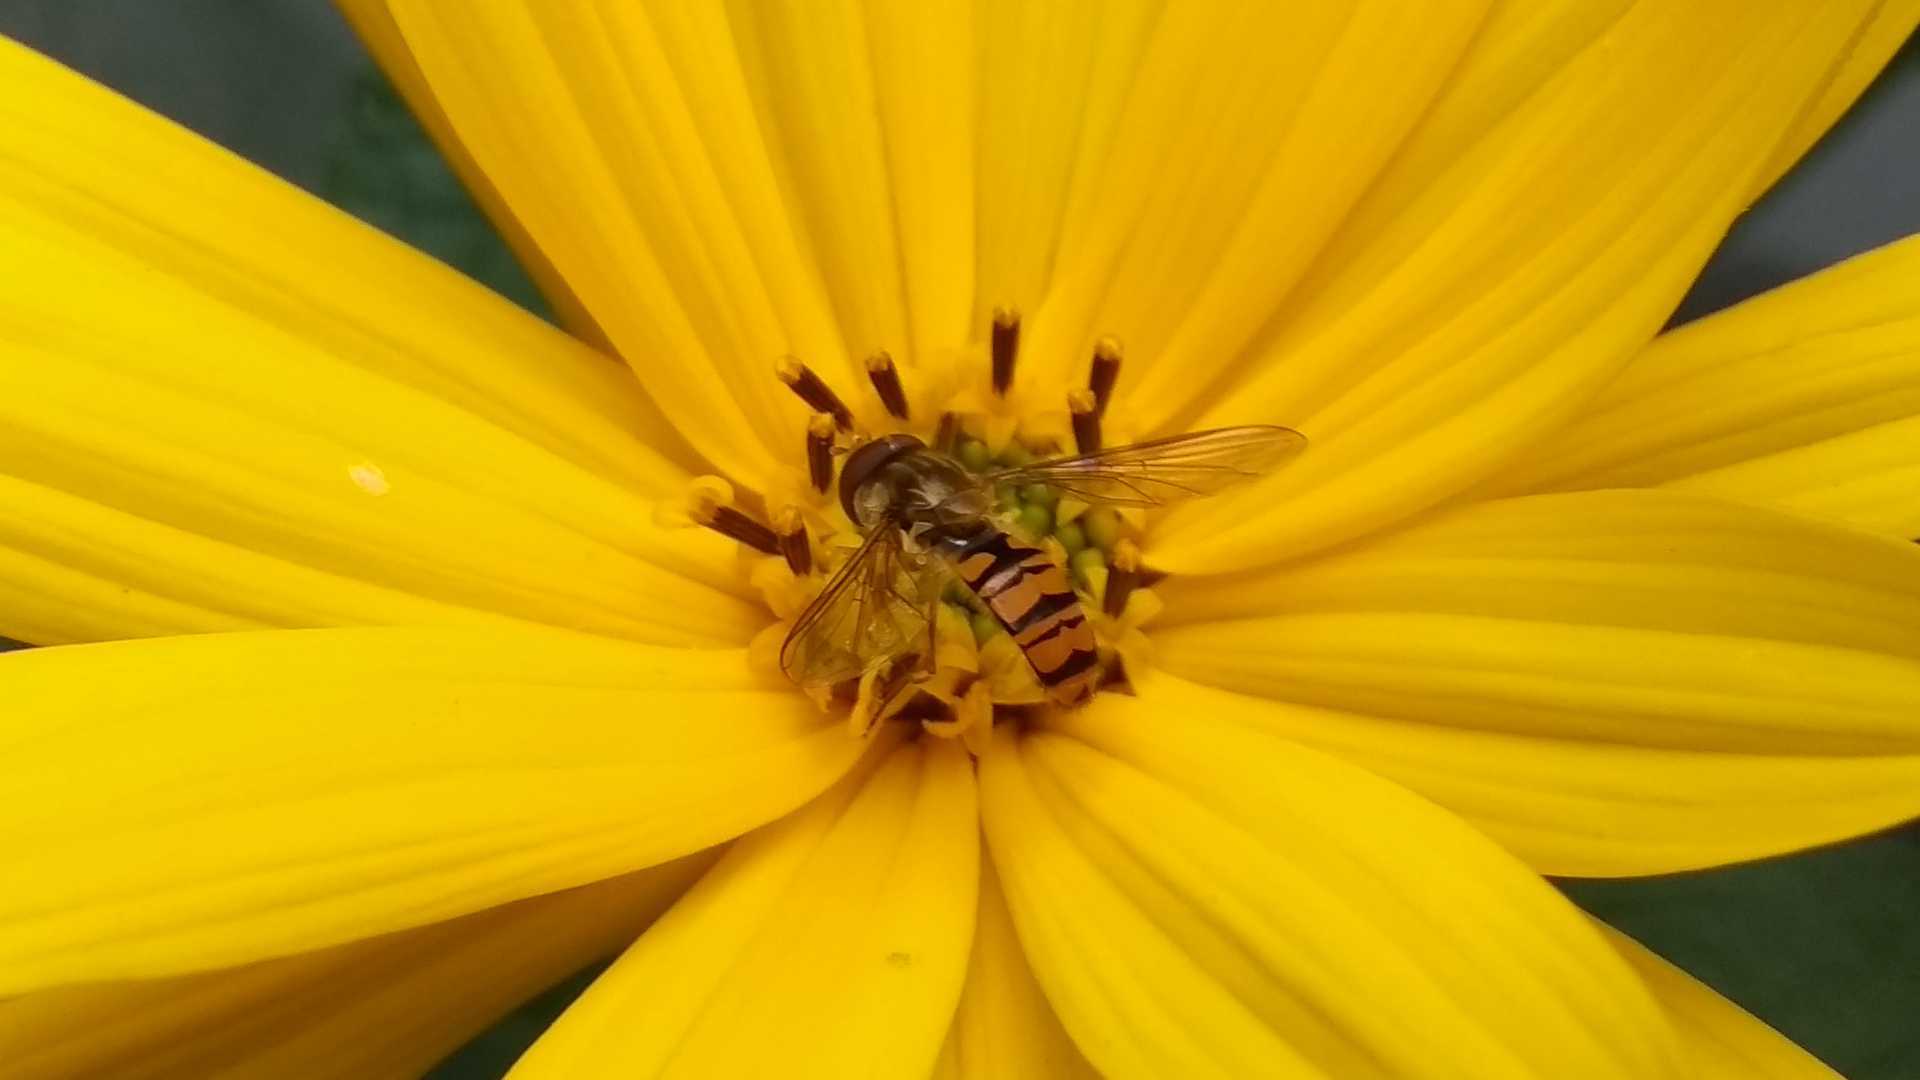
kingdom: Animalia
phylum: Arthropoda
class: Insecta
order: Diptera
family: Syrphidae
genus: Episyrphus
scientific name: Episyrphus balteatus
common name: Marmalade hoverfly
